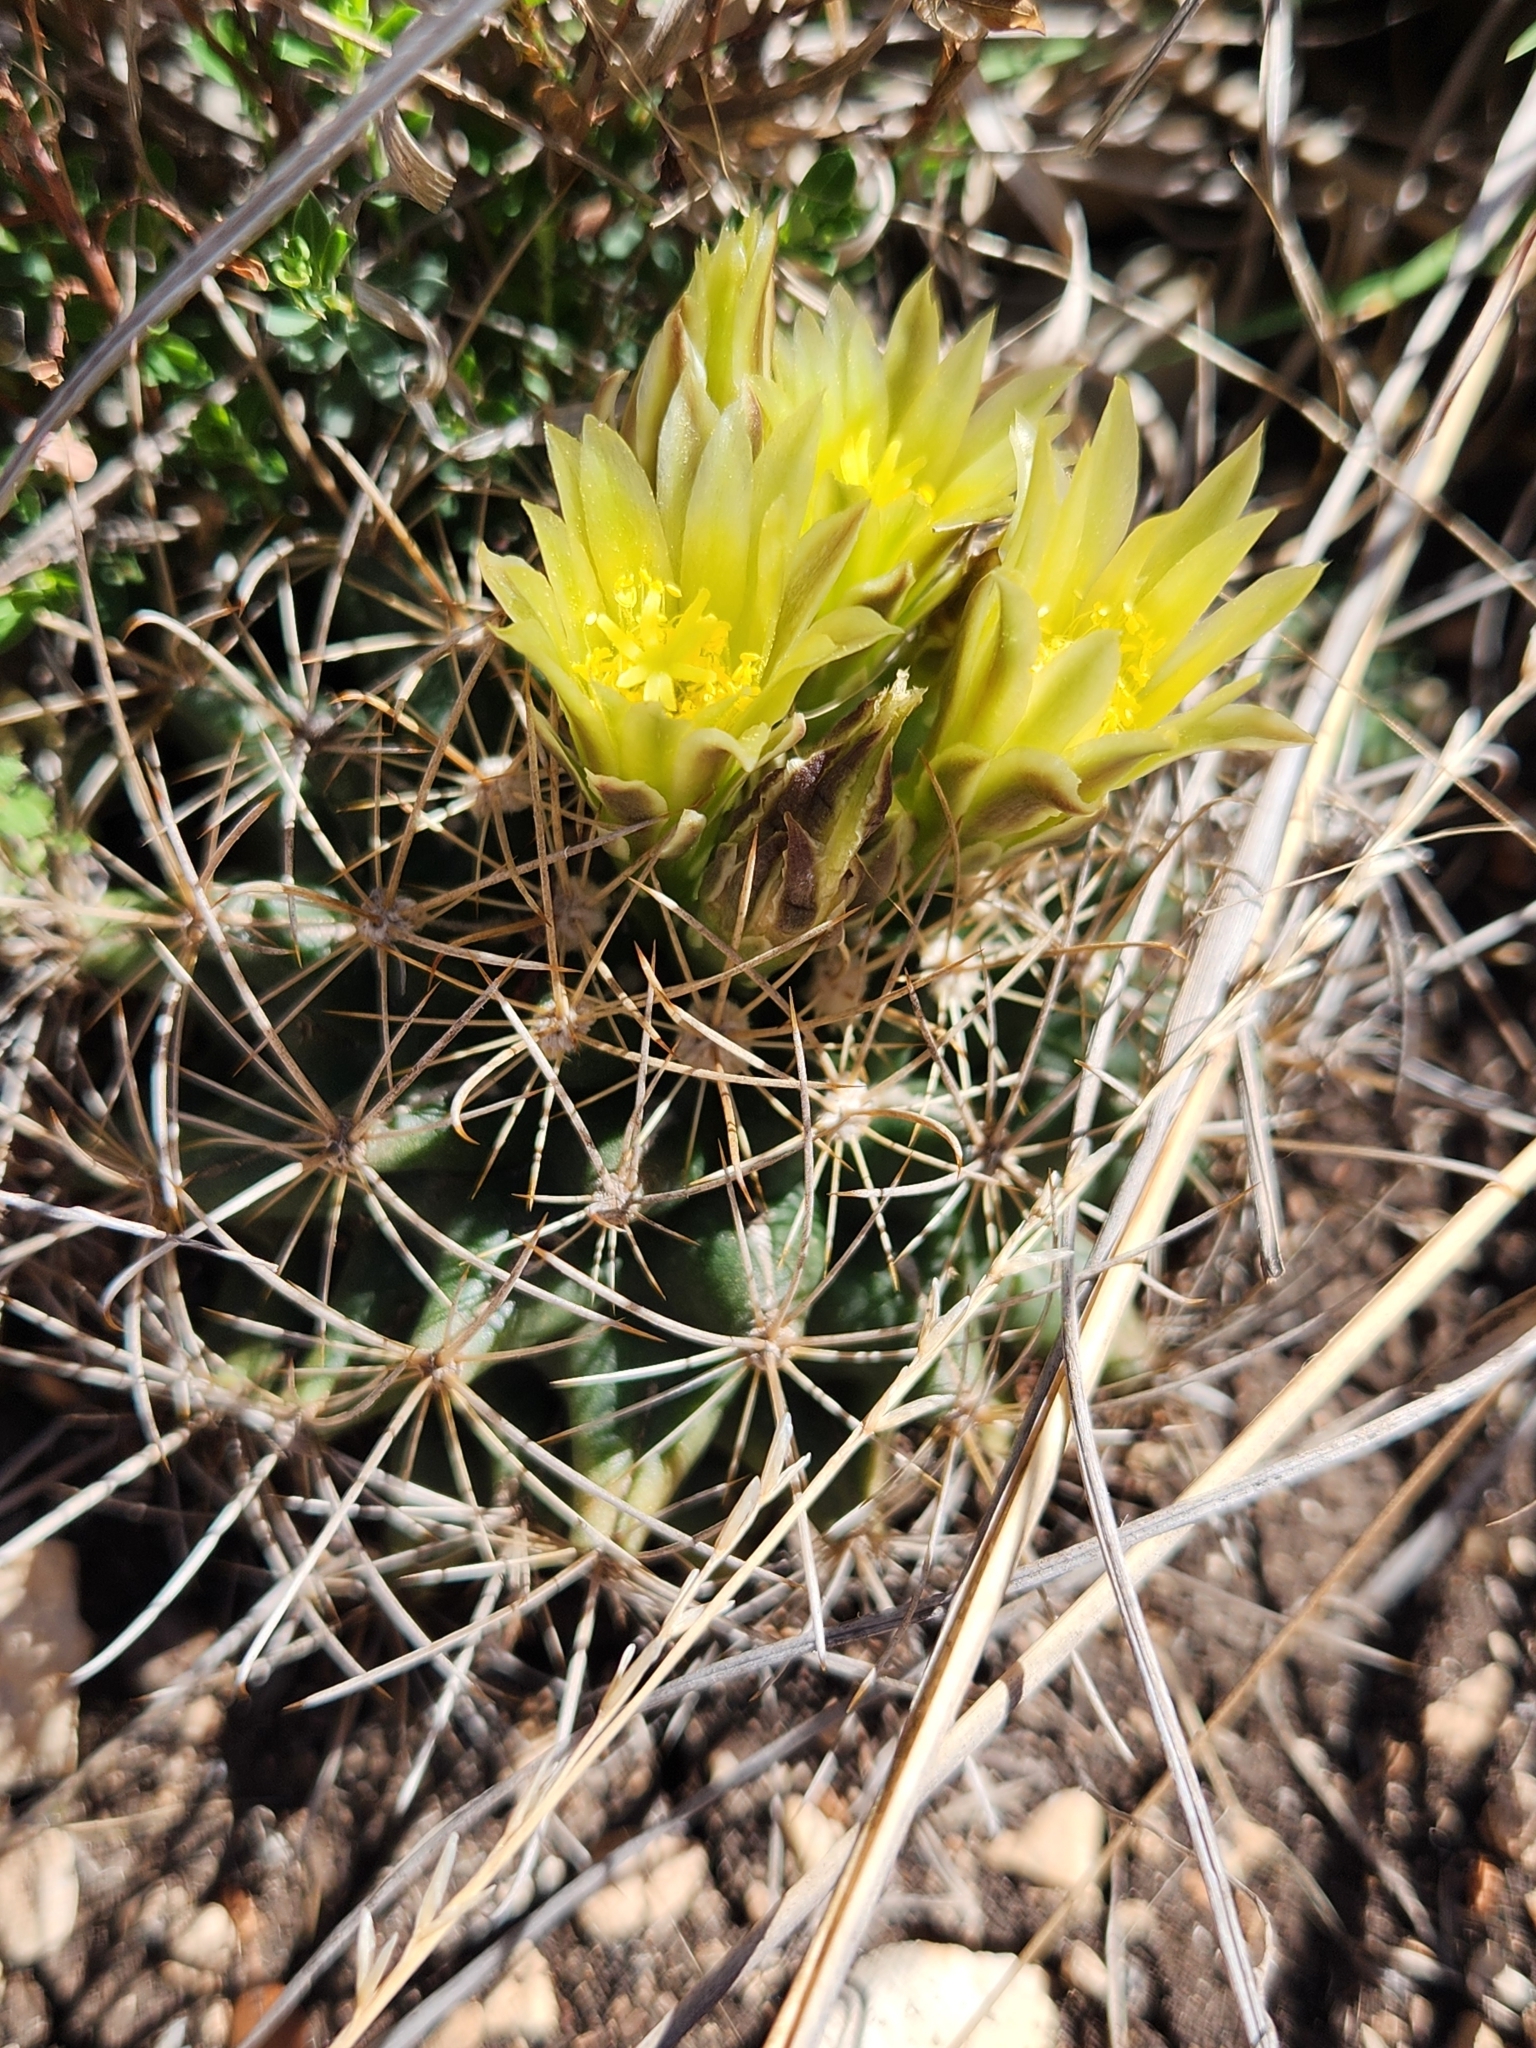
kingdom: Plantae
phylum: Tracheophyta
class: Magnoliopsida
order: Caryophyllales
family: Cactaceae
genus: Sclerocactus
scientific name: Sclerocactus brevihamatus
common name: Engelmann's fishhook cactus
